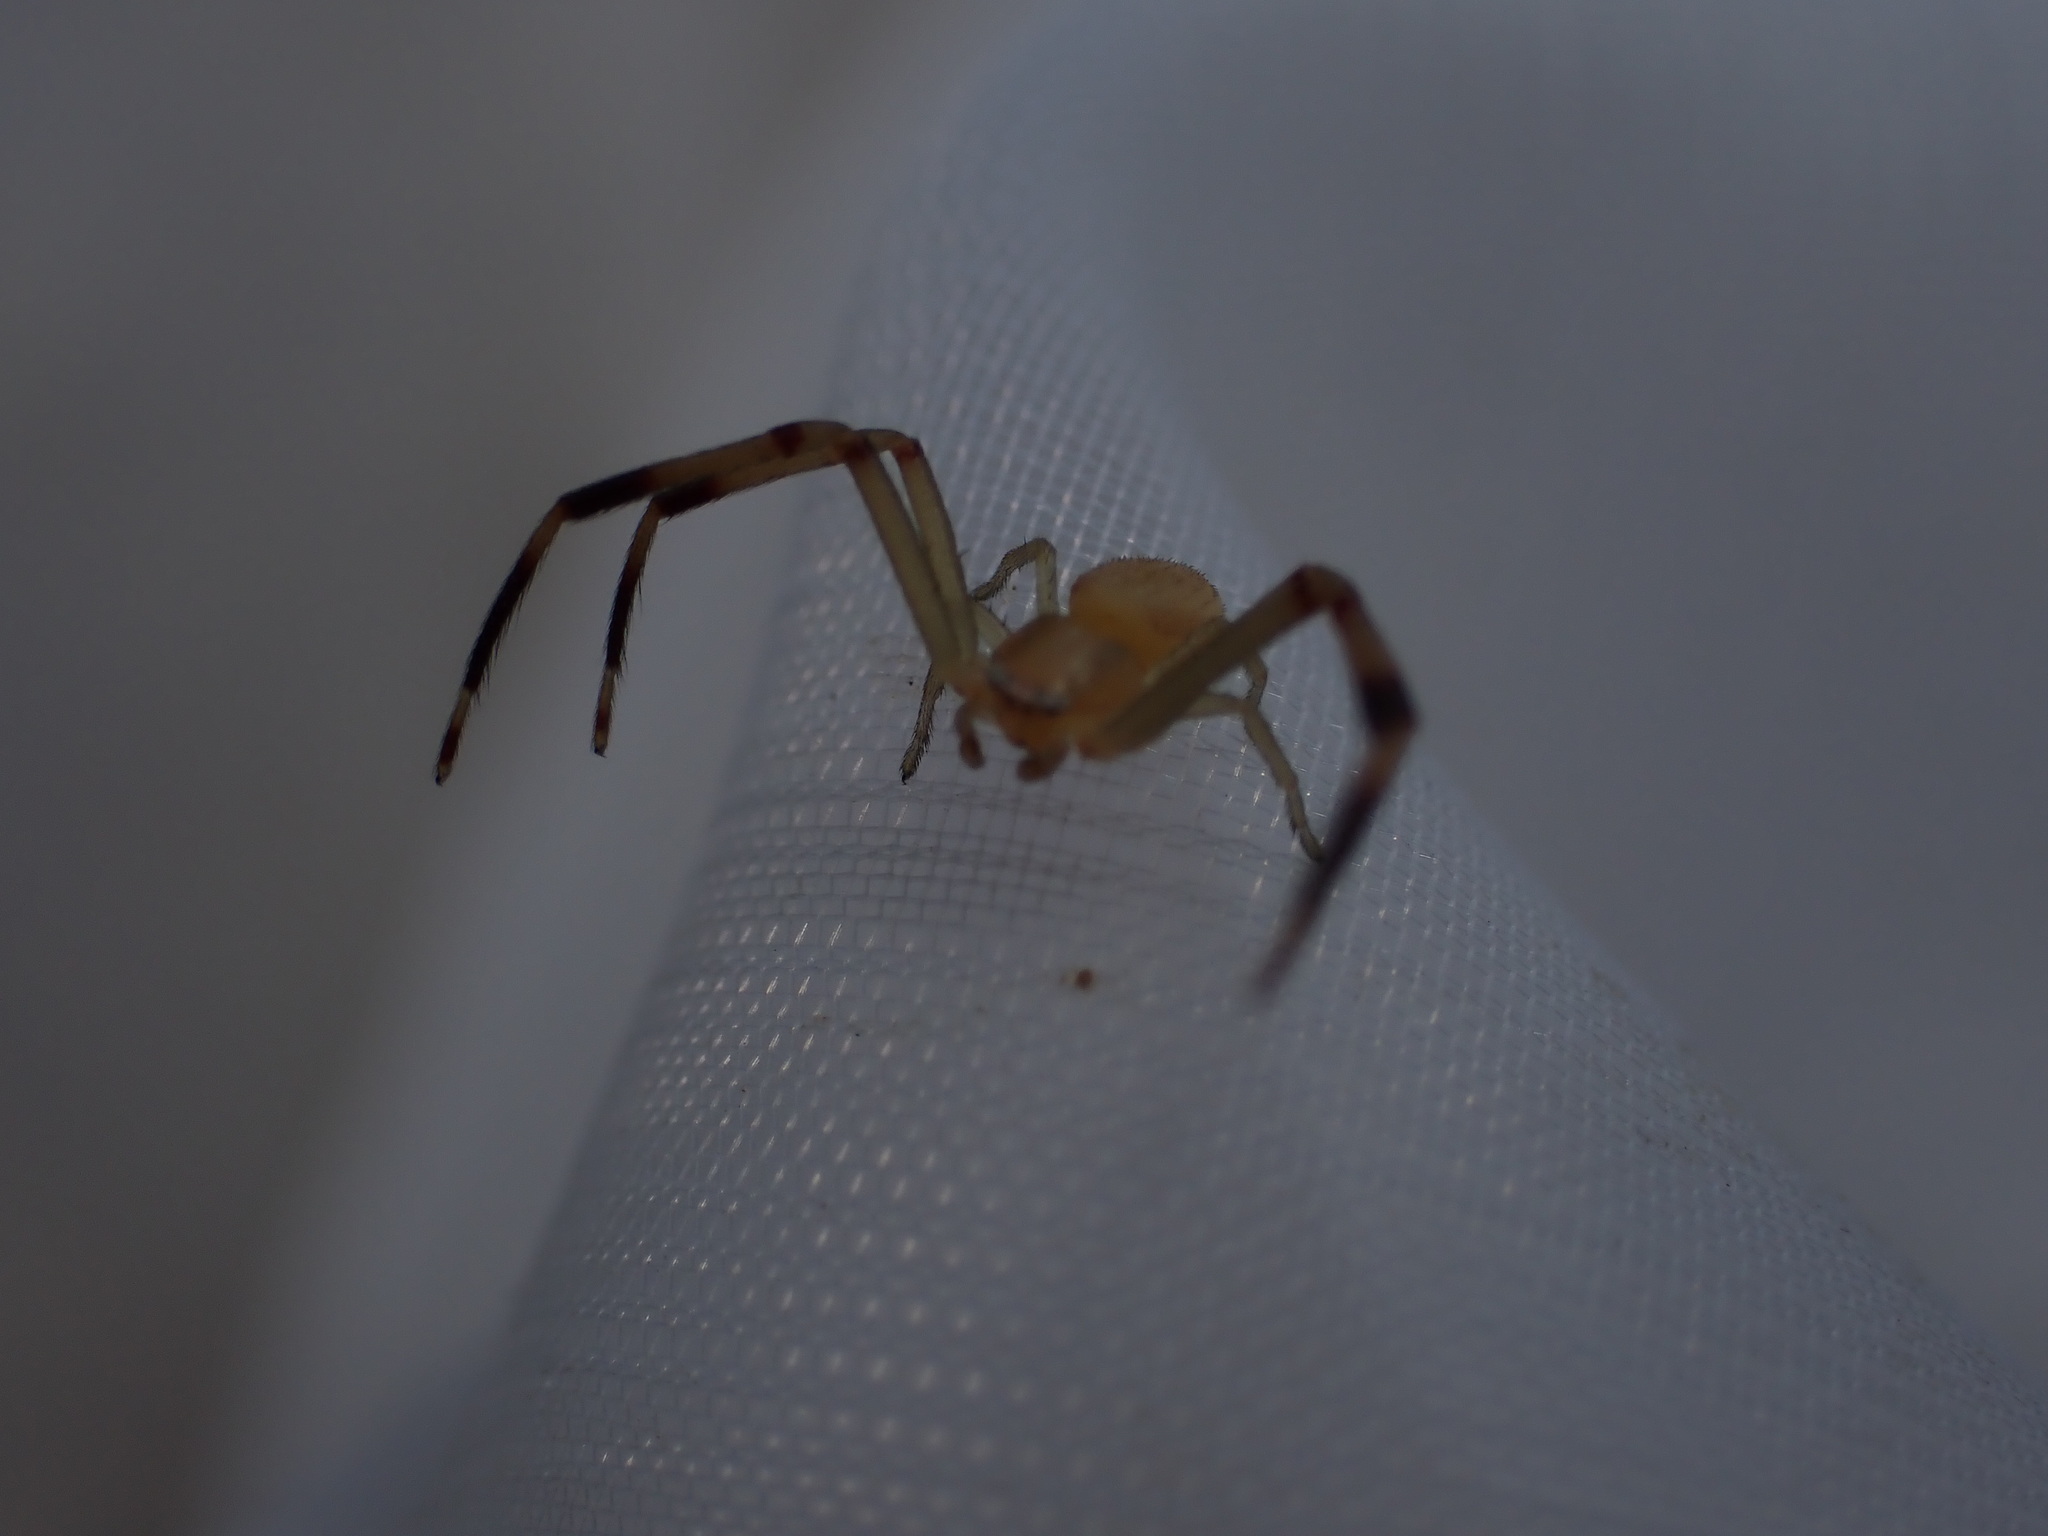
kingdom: Animalia
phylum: Arthropoda
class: Arachnida
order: Araneae
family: Thomisidae
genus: Runcinia
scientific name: Runcinia grammica
